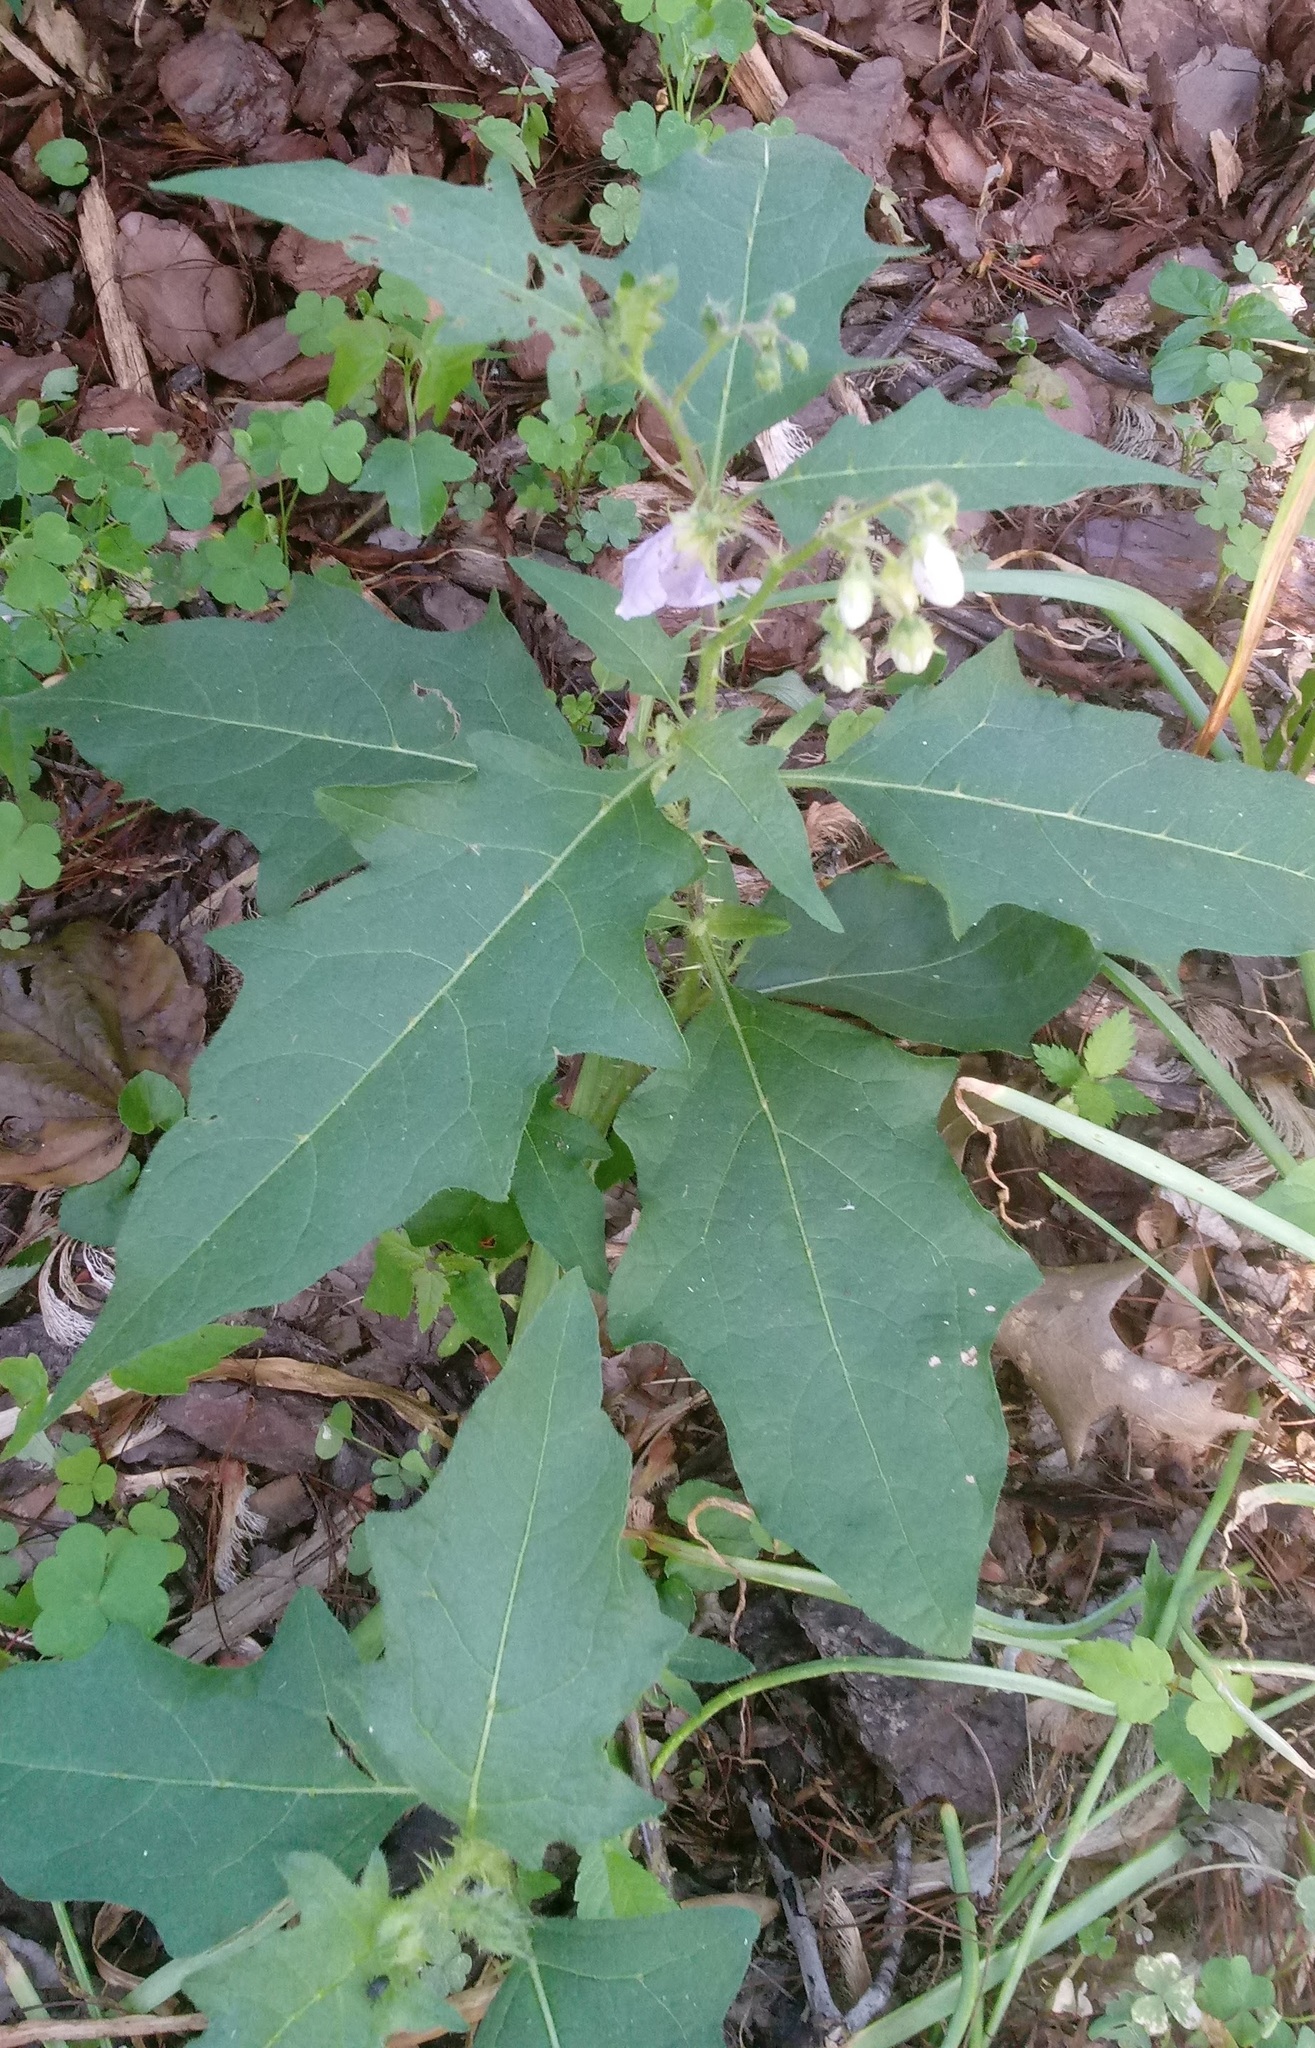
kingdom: Plantae
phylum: Tracheophyta
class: Magnoliopsida
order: Solanales
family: Solanaceae
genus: Solanum
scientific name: Solanum carolinense
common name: Horse-nettle
